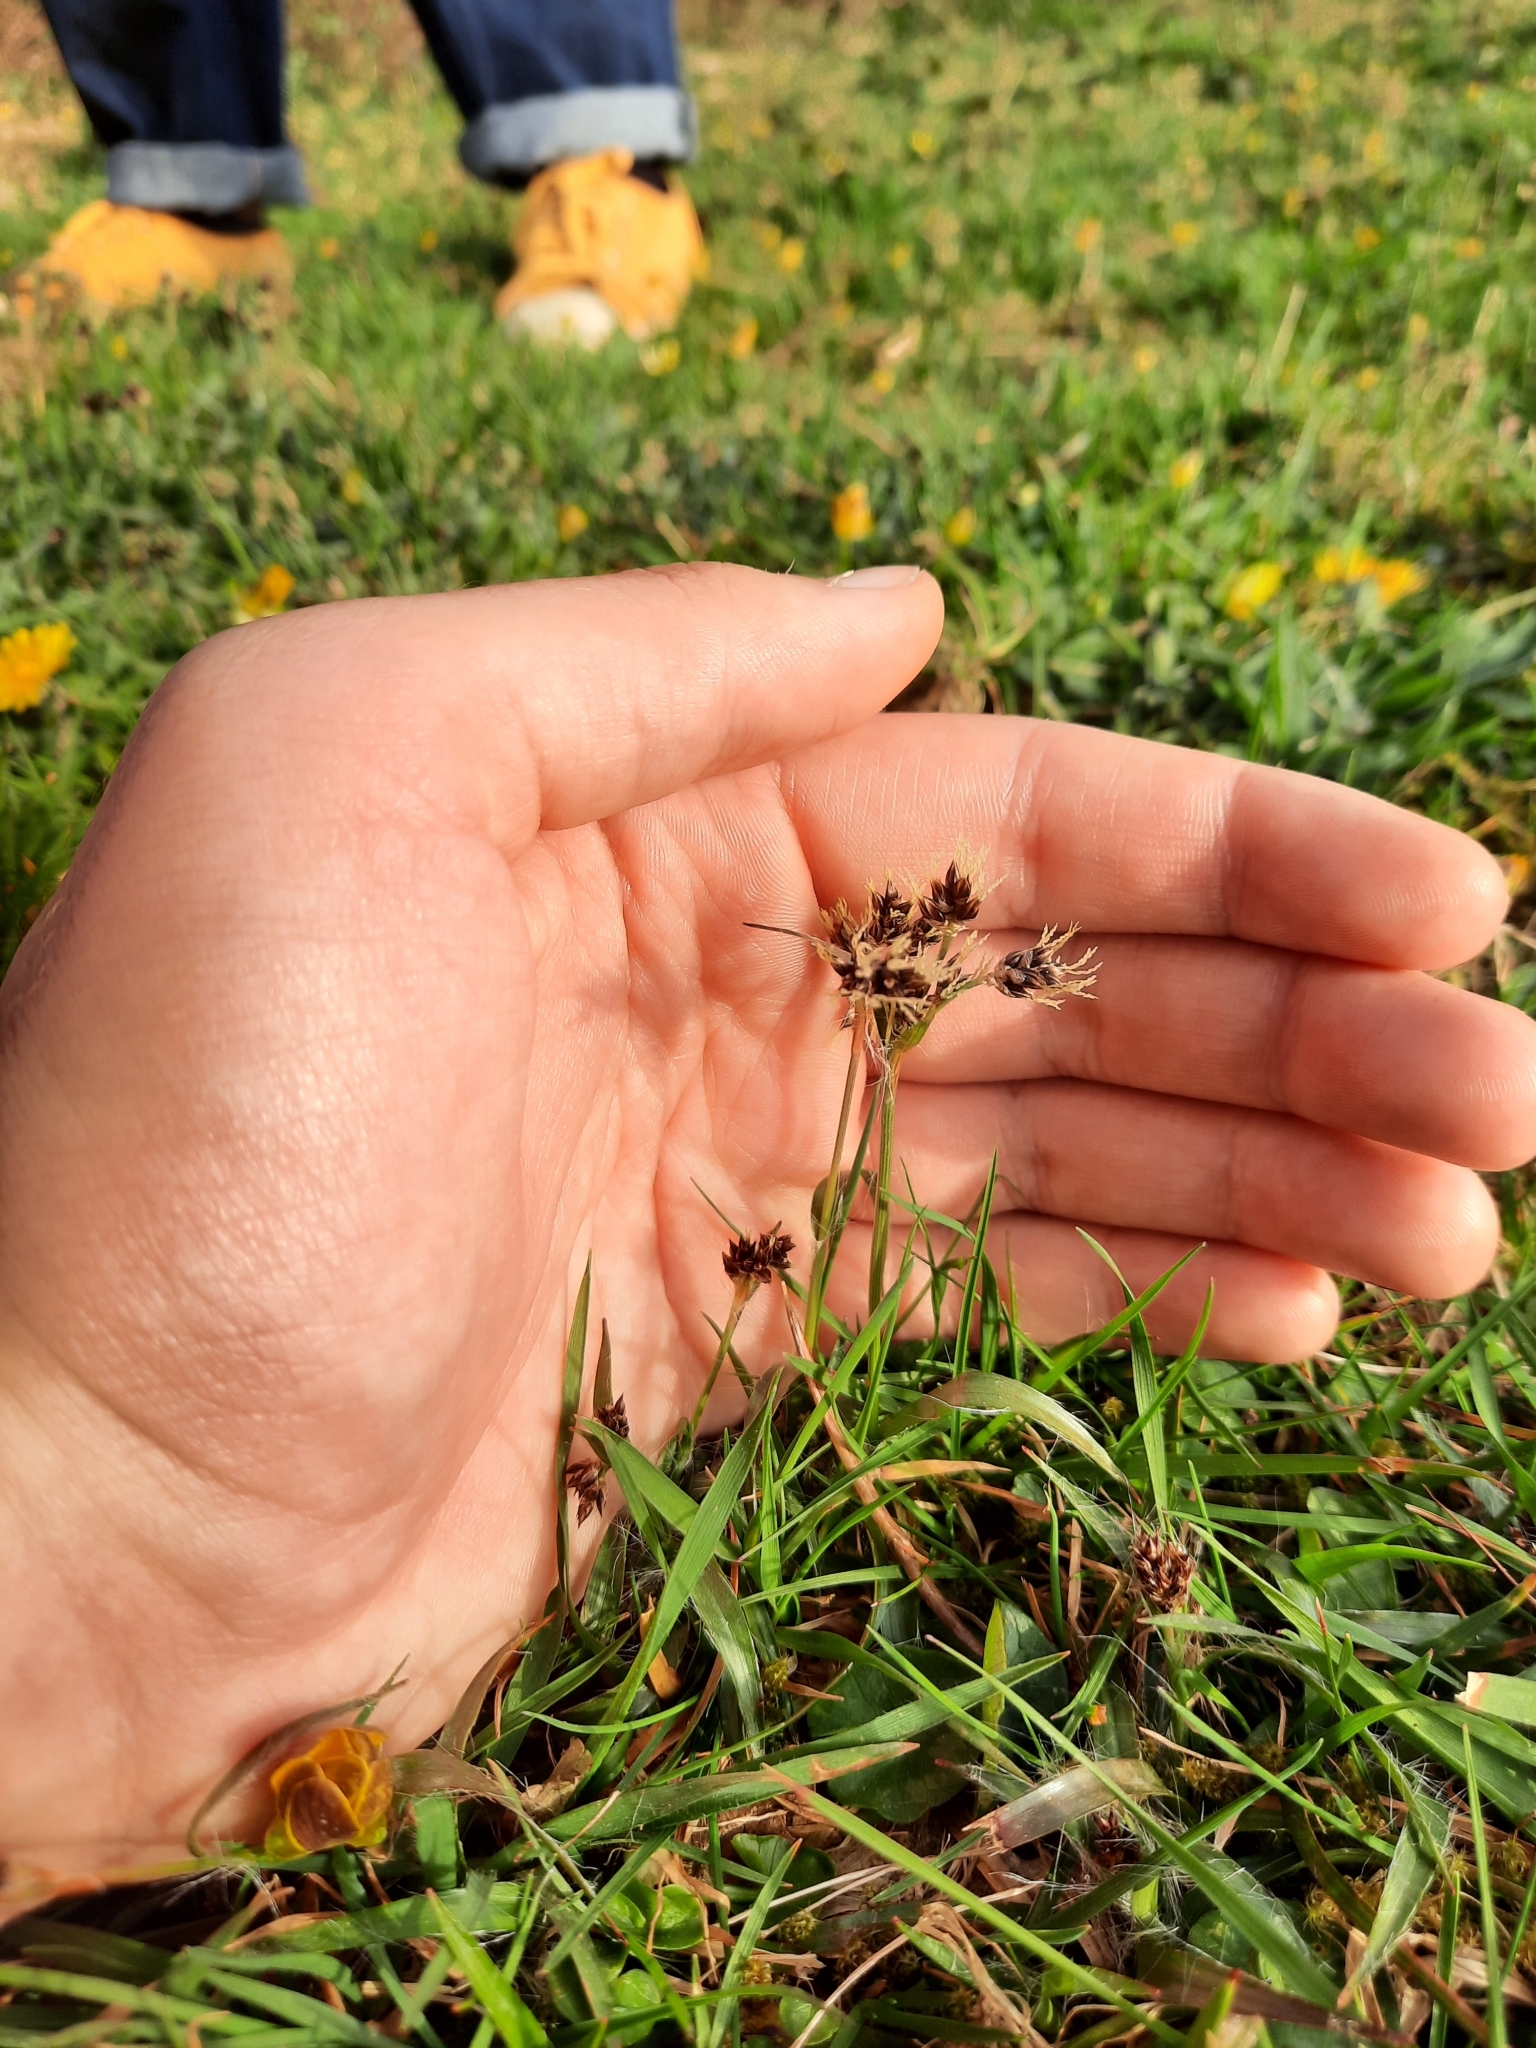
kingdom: Plantae
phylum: Tracheophyta
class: Liliopsida
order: Poales
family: Juncaceae
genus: Luzula
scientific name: Luzula campestris
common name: Field wood-rush
